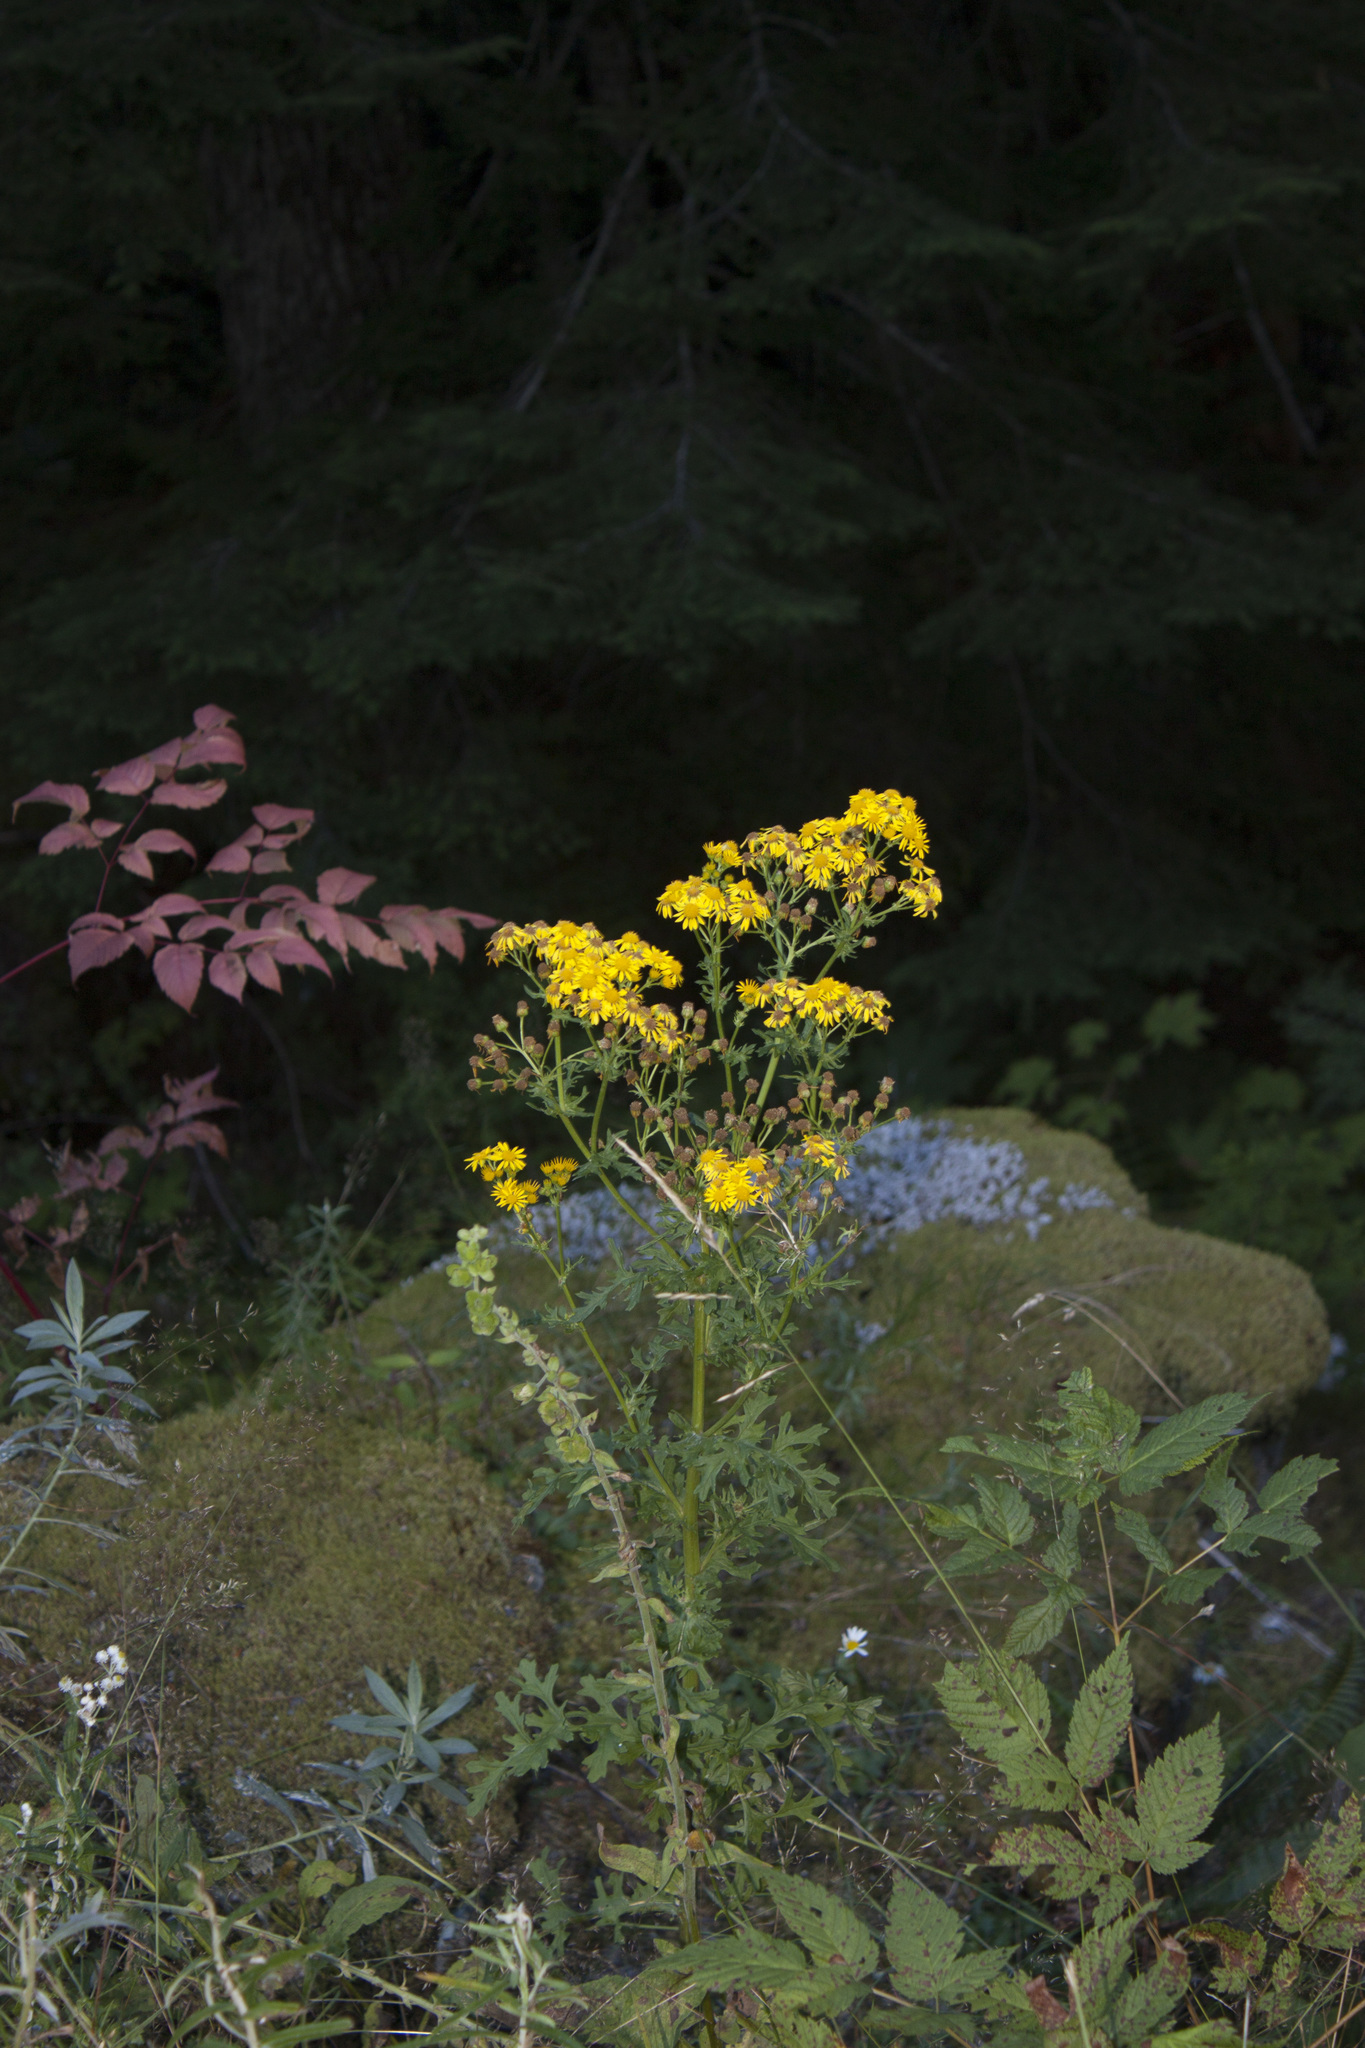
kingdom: Plantae
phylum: Tracheophyta
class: Magnoliopsida
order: Asterales
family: Asteraceae
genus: Jacobaea
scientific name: Jacobaea vulgaris
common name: Stinking willie
